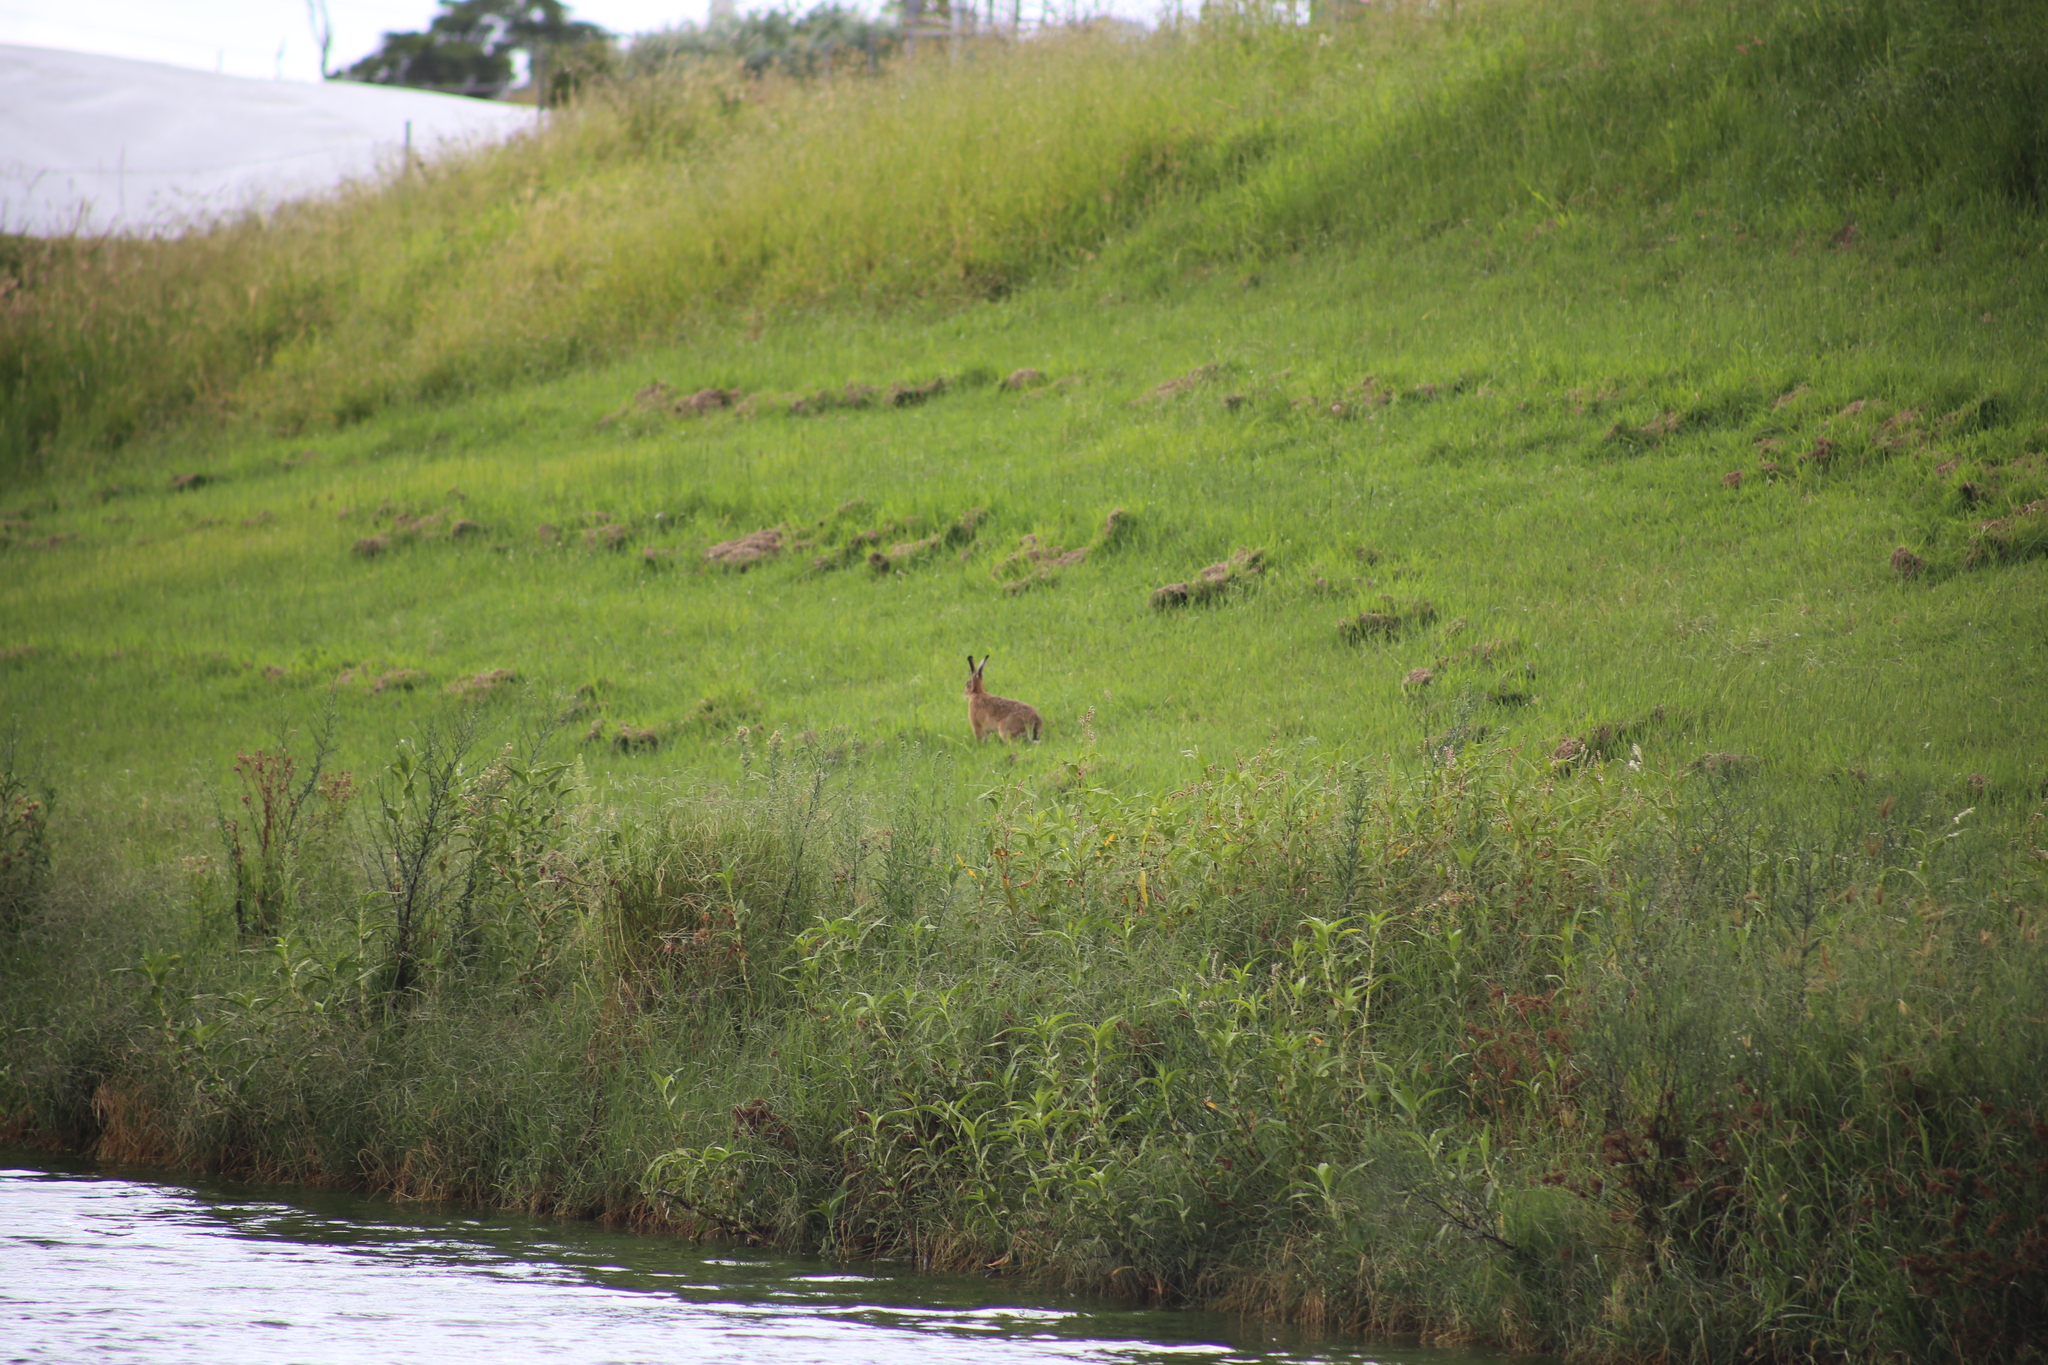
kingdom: Animalia
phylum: Chordata
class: Mammalia
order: Lagomorpha
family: Leporidae
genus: Lepus
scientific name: Lepus europaeus
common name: European hare
